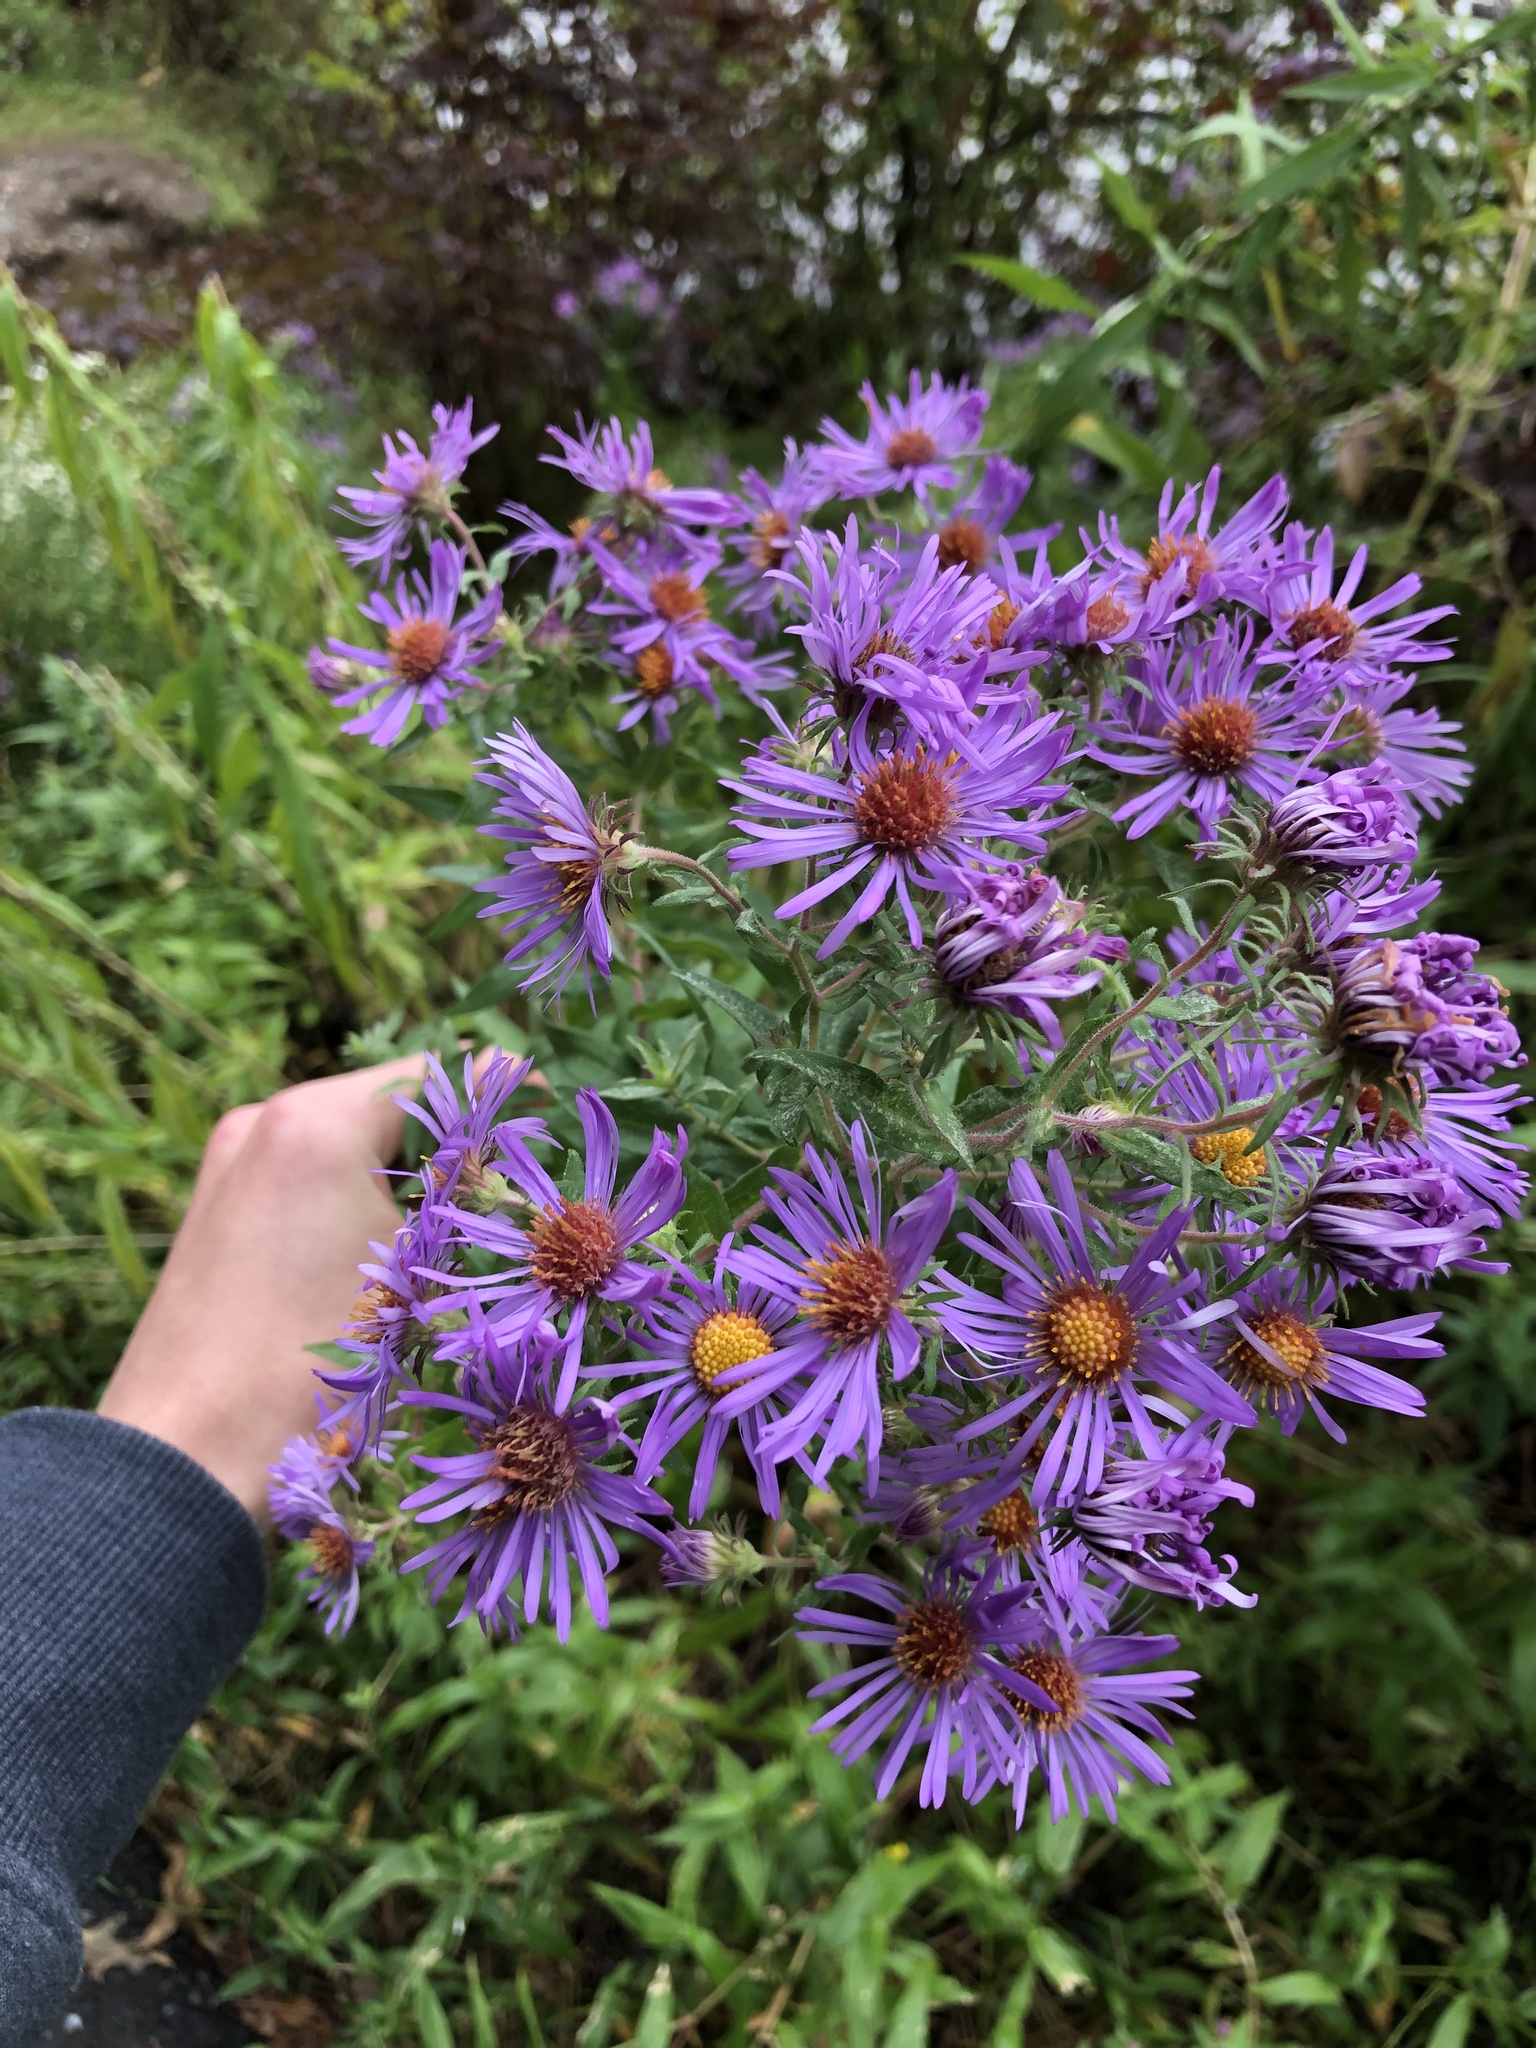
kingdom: Plantae
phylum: Tracheophyta
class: Magnoliopsida
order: Asterales
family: Asteraceae
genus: Symphyotrichum
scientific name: Symphyotrichum novae-angliae
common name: Michaelmas daisy
